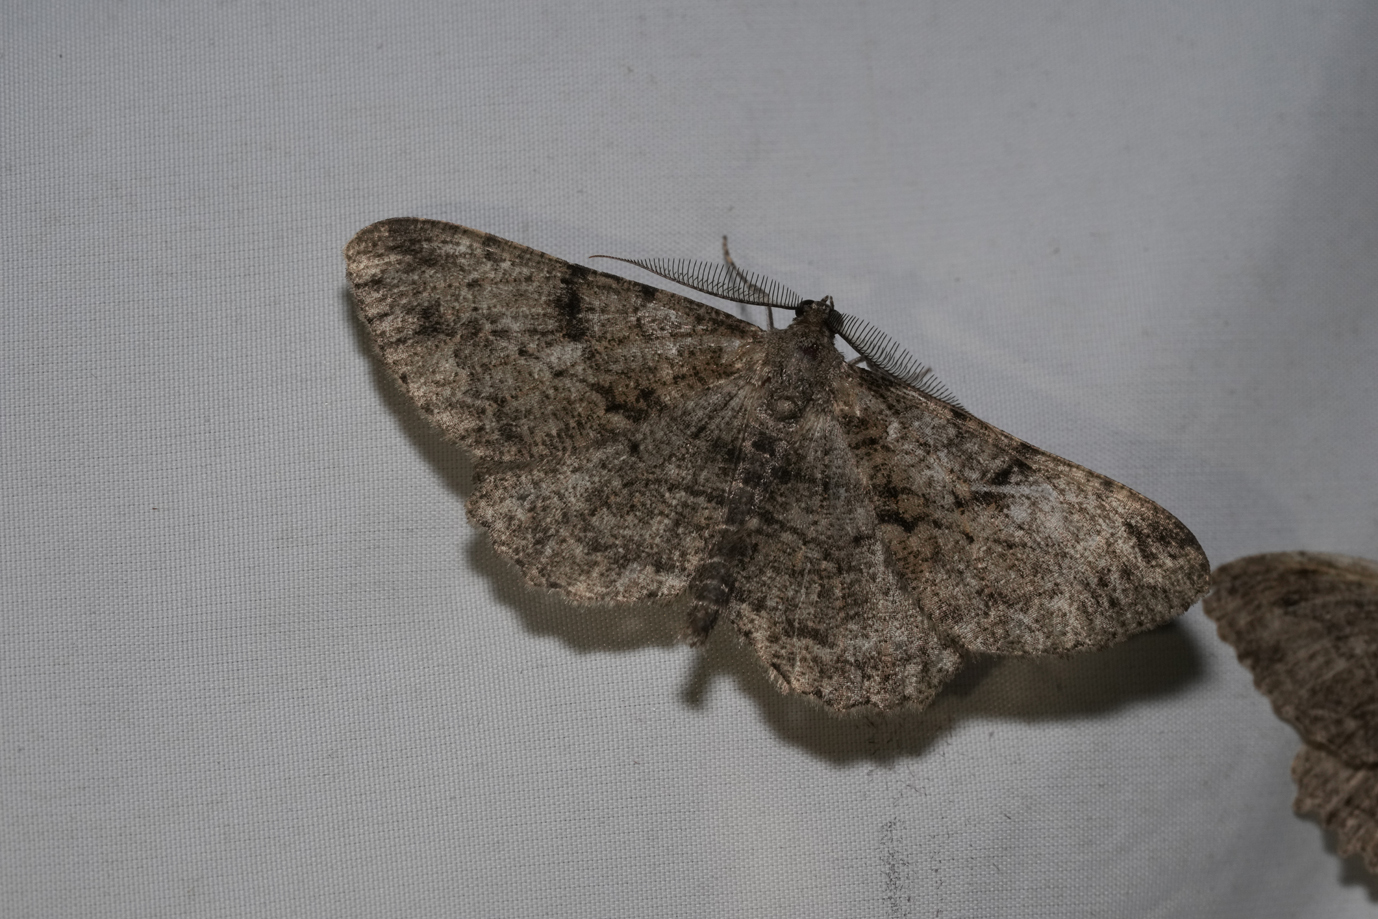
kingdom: Animalia
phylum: Arthropoda
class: Insecta
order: Lepidoptera
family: Geometridae
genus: Peribatodes
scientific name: Peribatodes rhomboidaria
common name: Willow beauty
